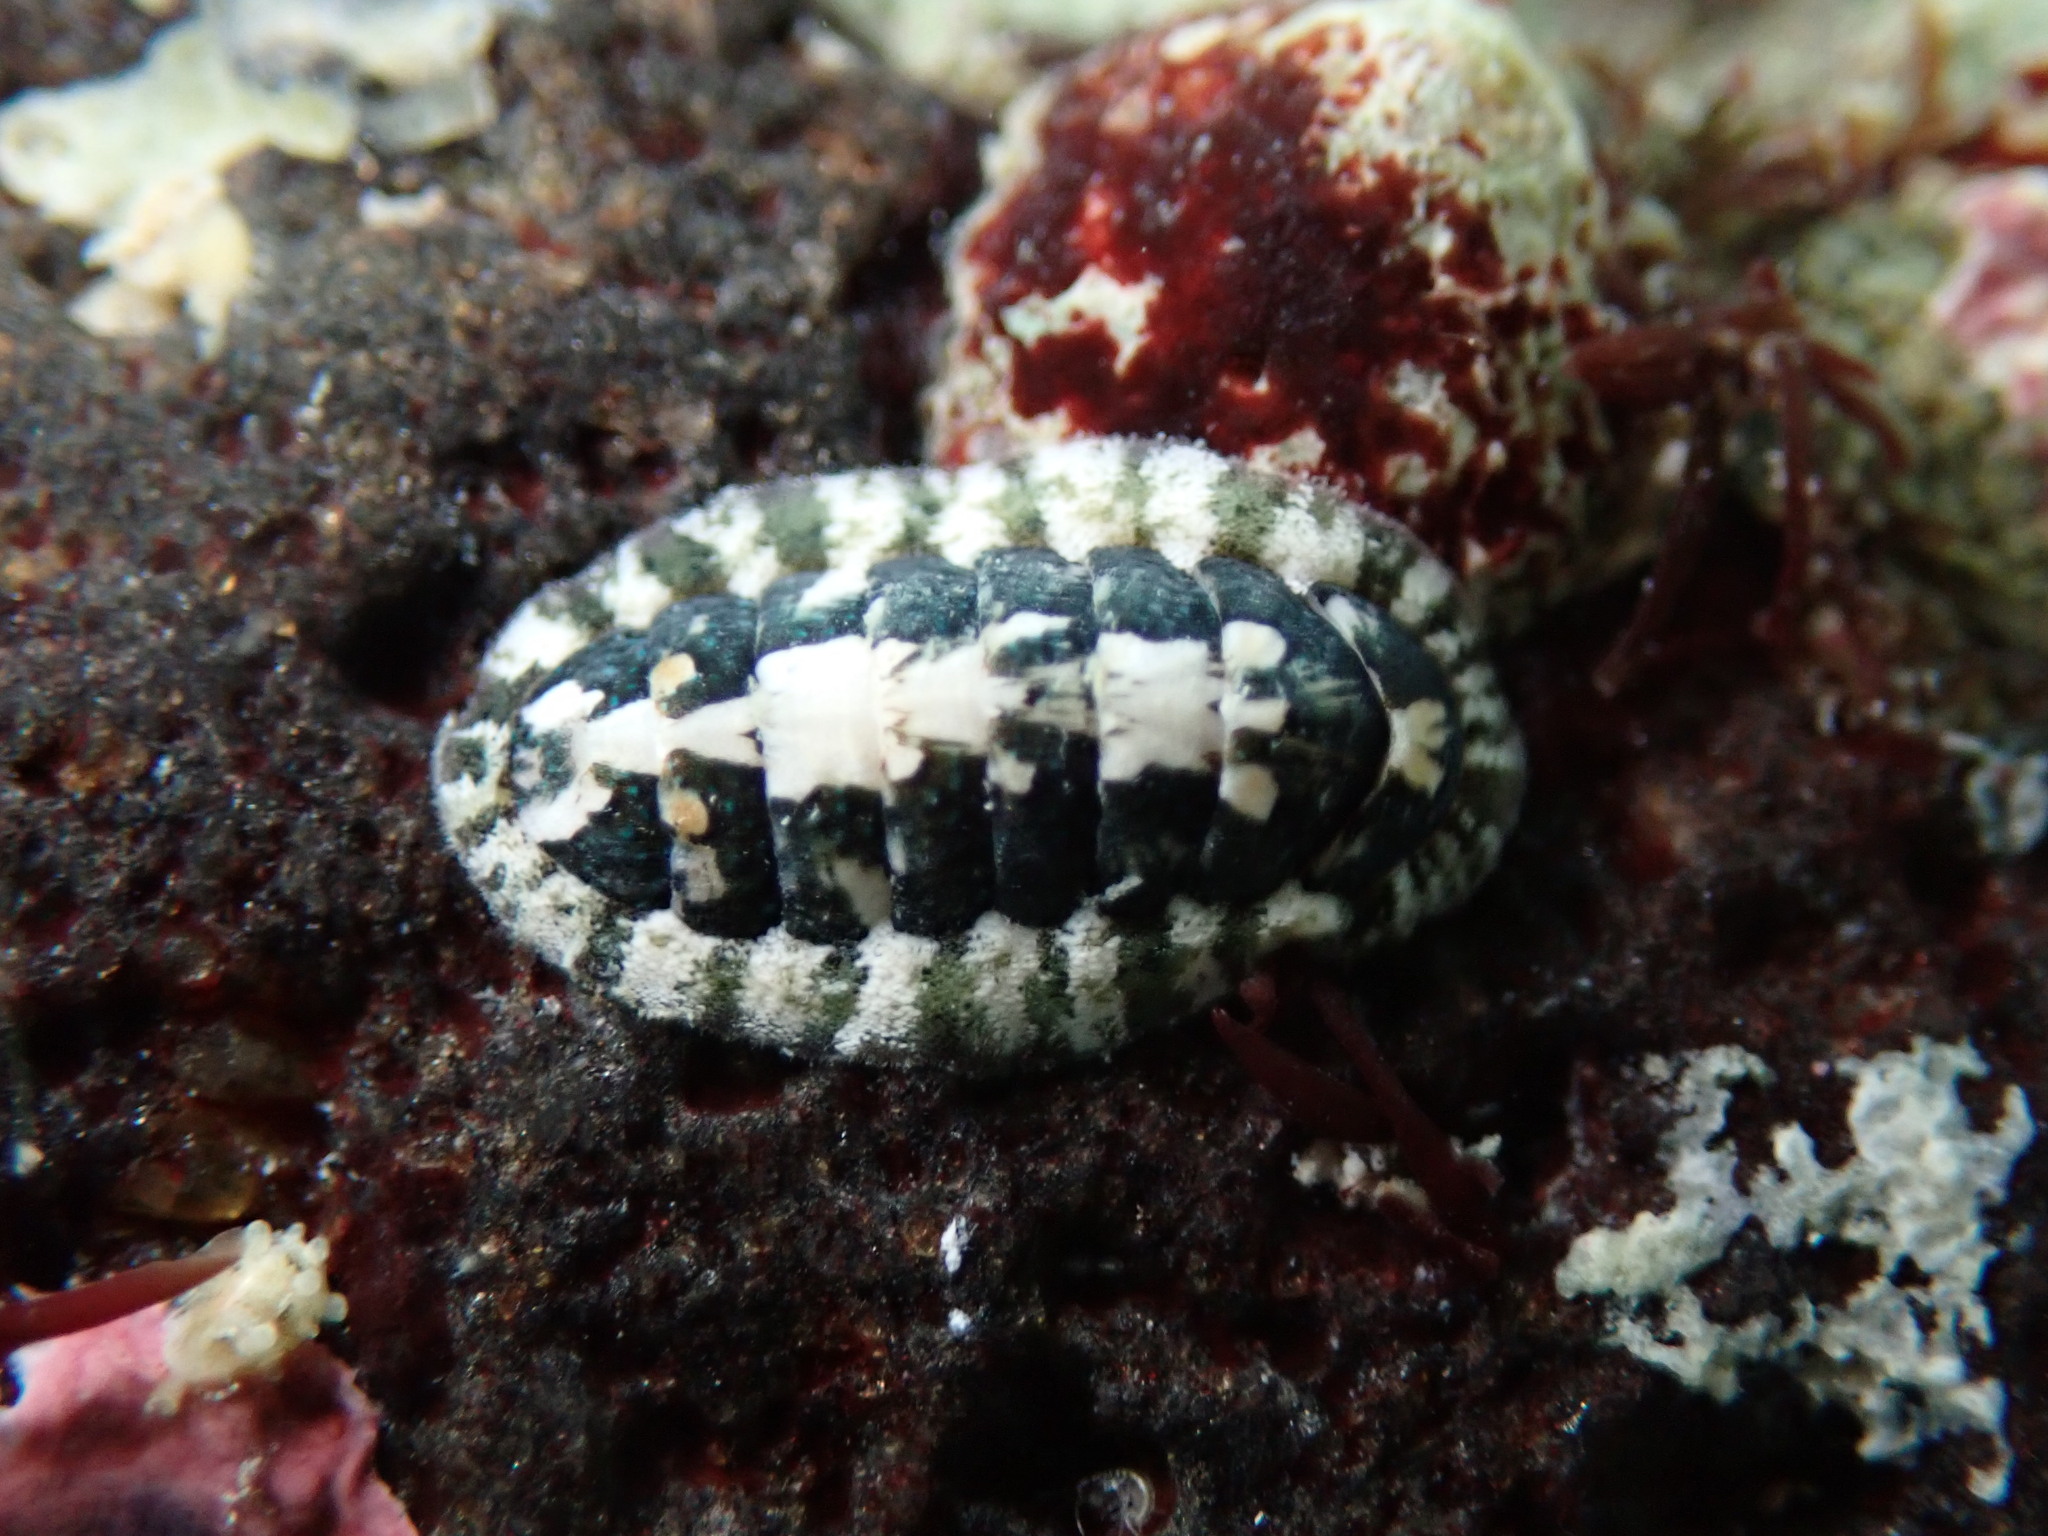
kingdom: Animalia
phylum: Mollusca
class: Polyplacophora
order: Chitonida
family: Ischnochitonidae
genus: Stenoplax
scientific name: Stenoplax petaloides
